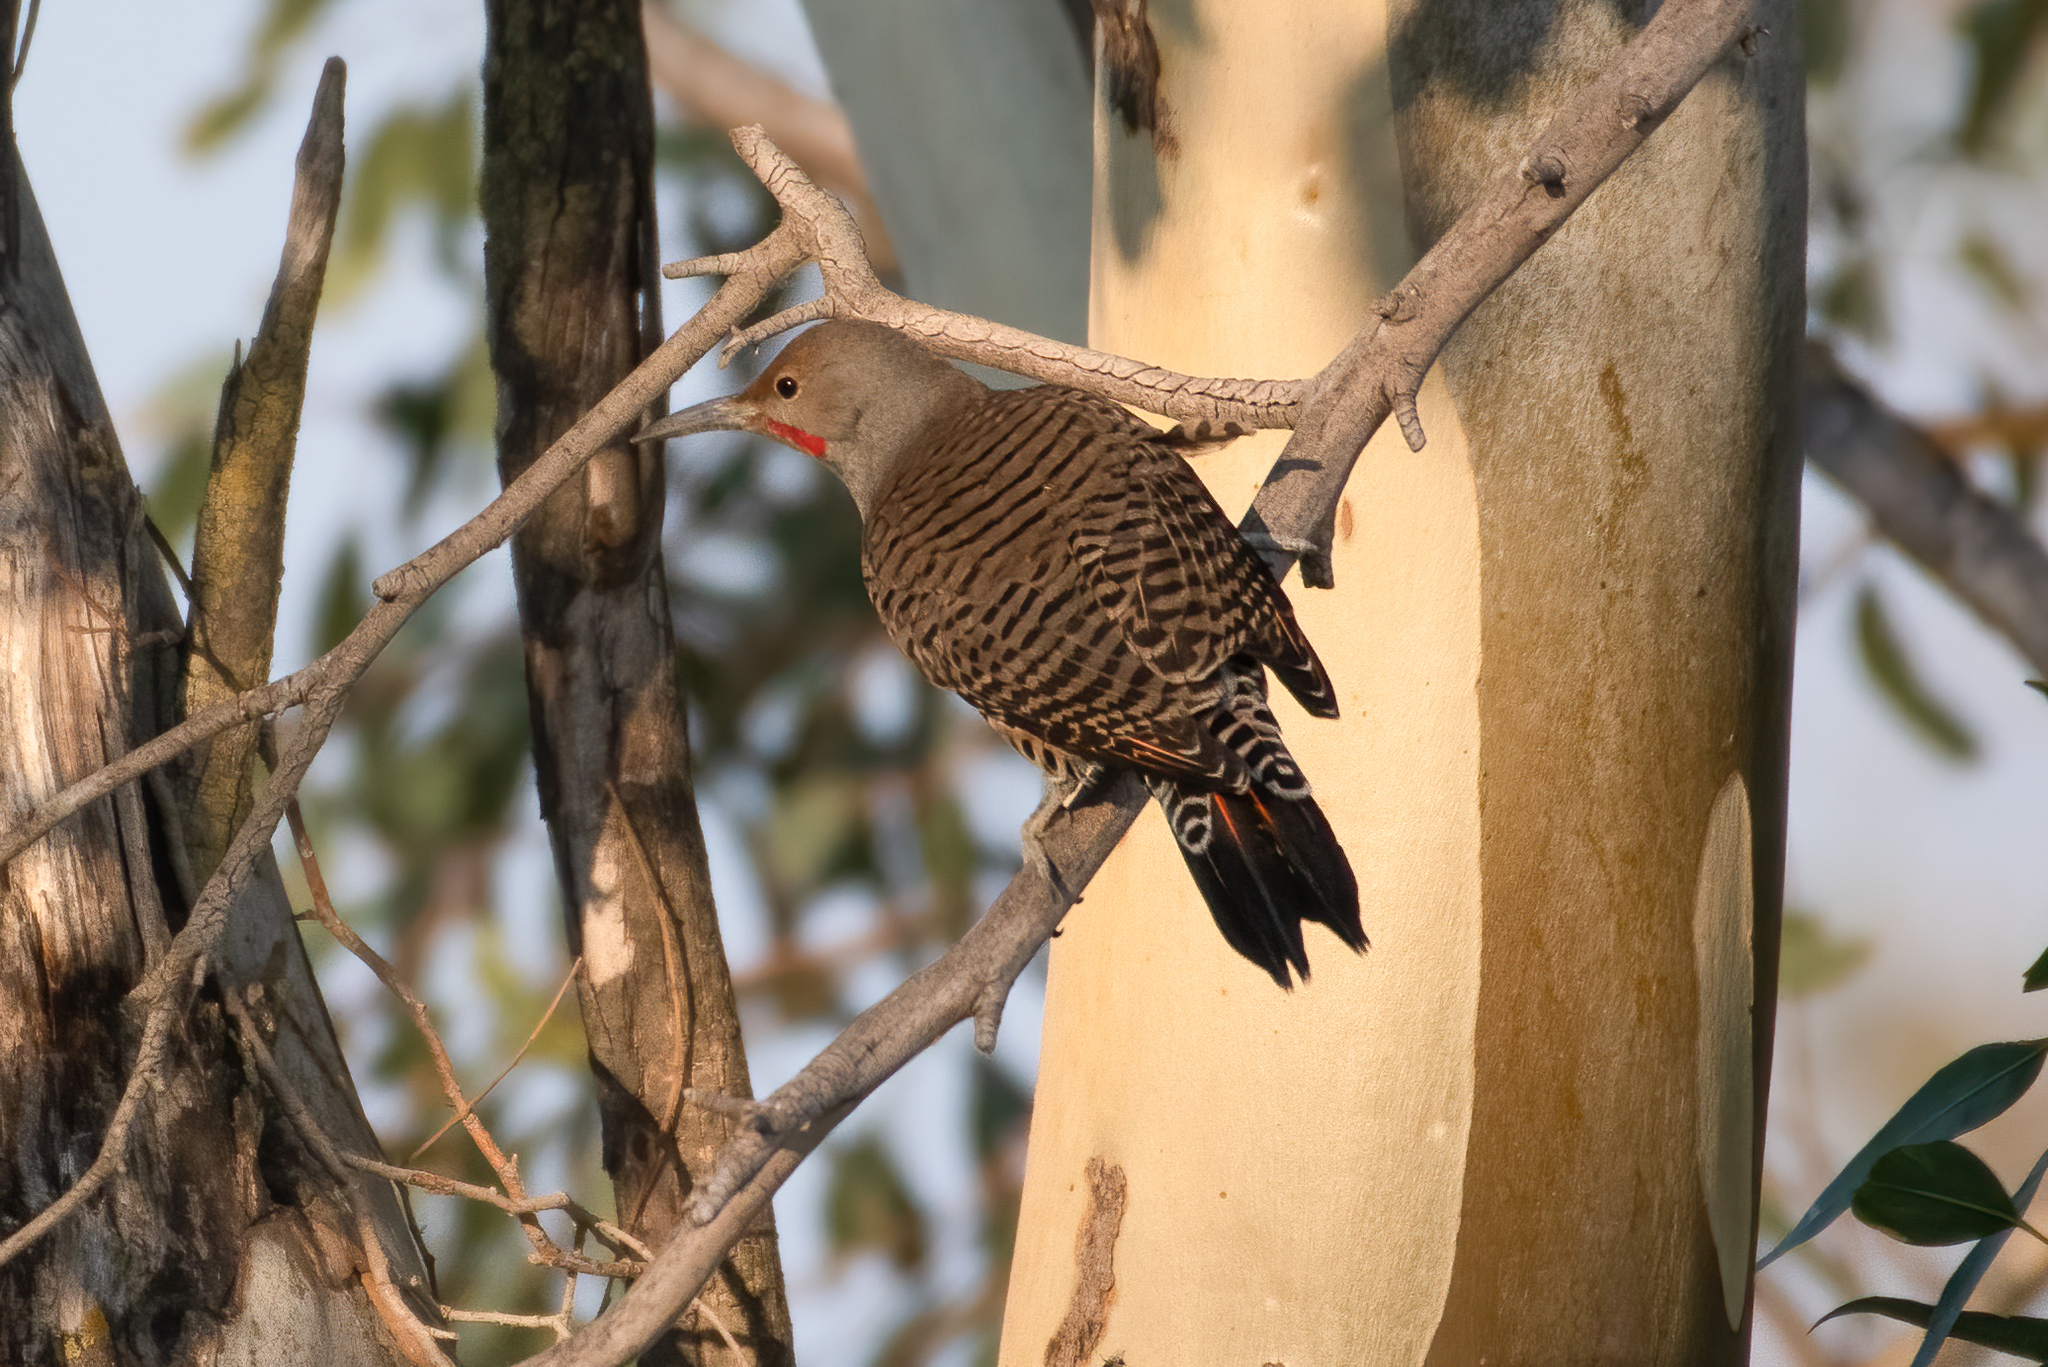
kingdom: Animalia
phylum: Chordata
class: Aves
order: Piciformes
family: Picidae
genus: Colaptes
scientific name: Colaptes auratus
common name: Northern flicker
